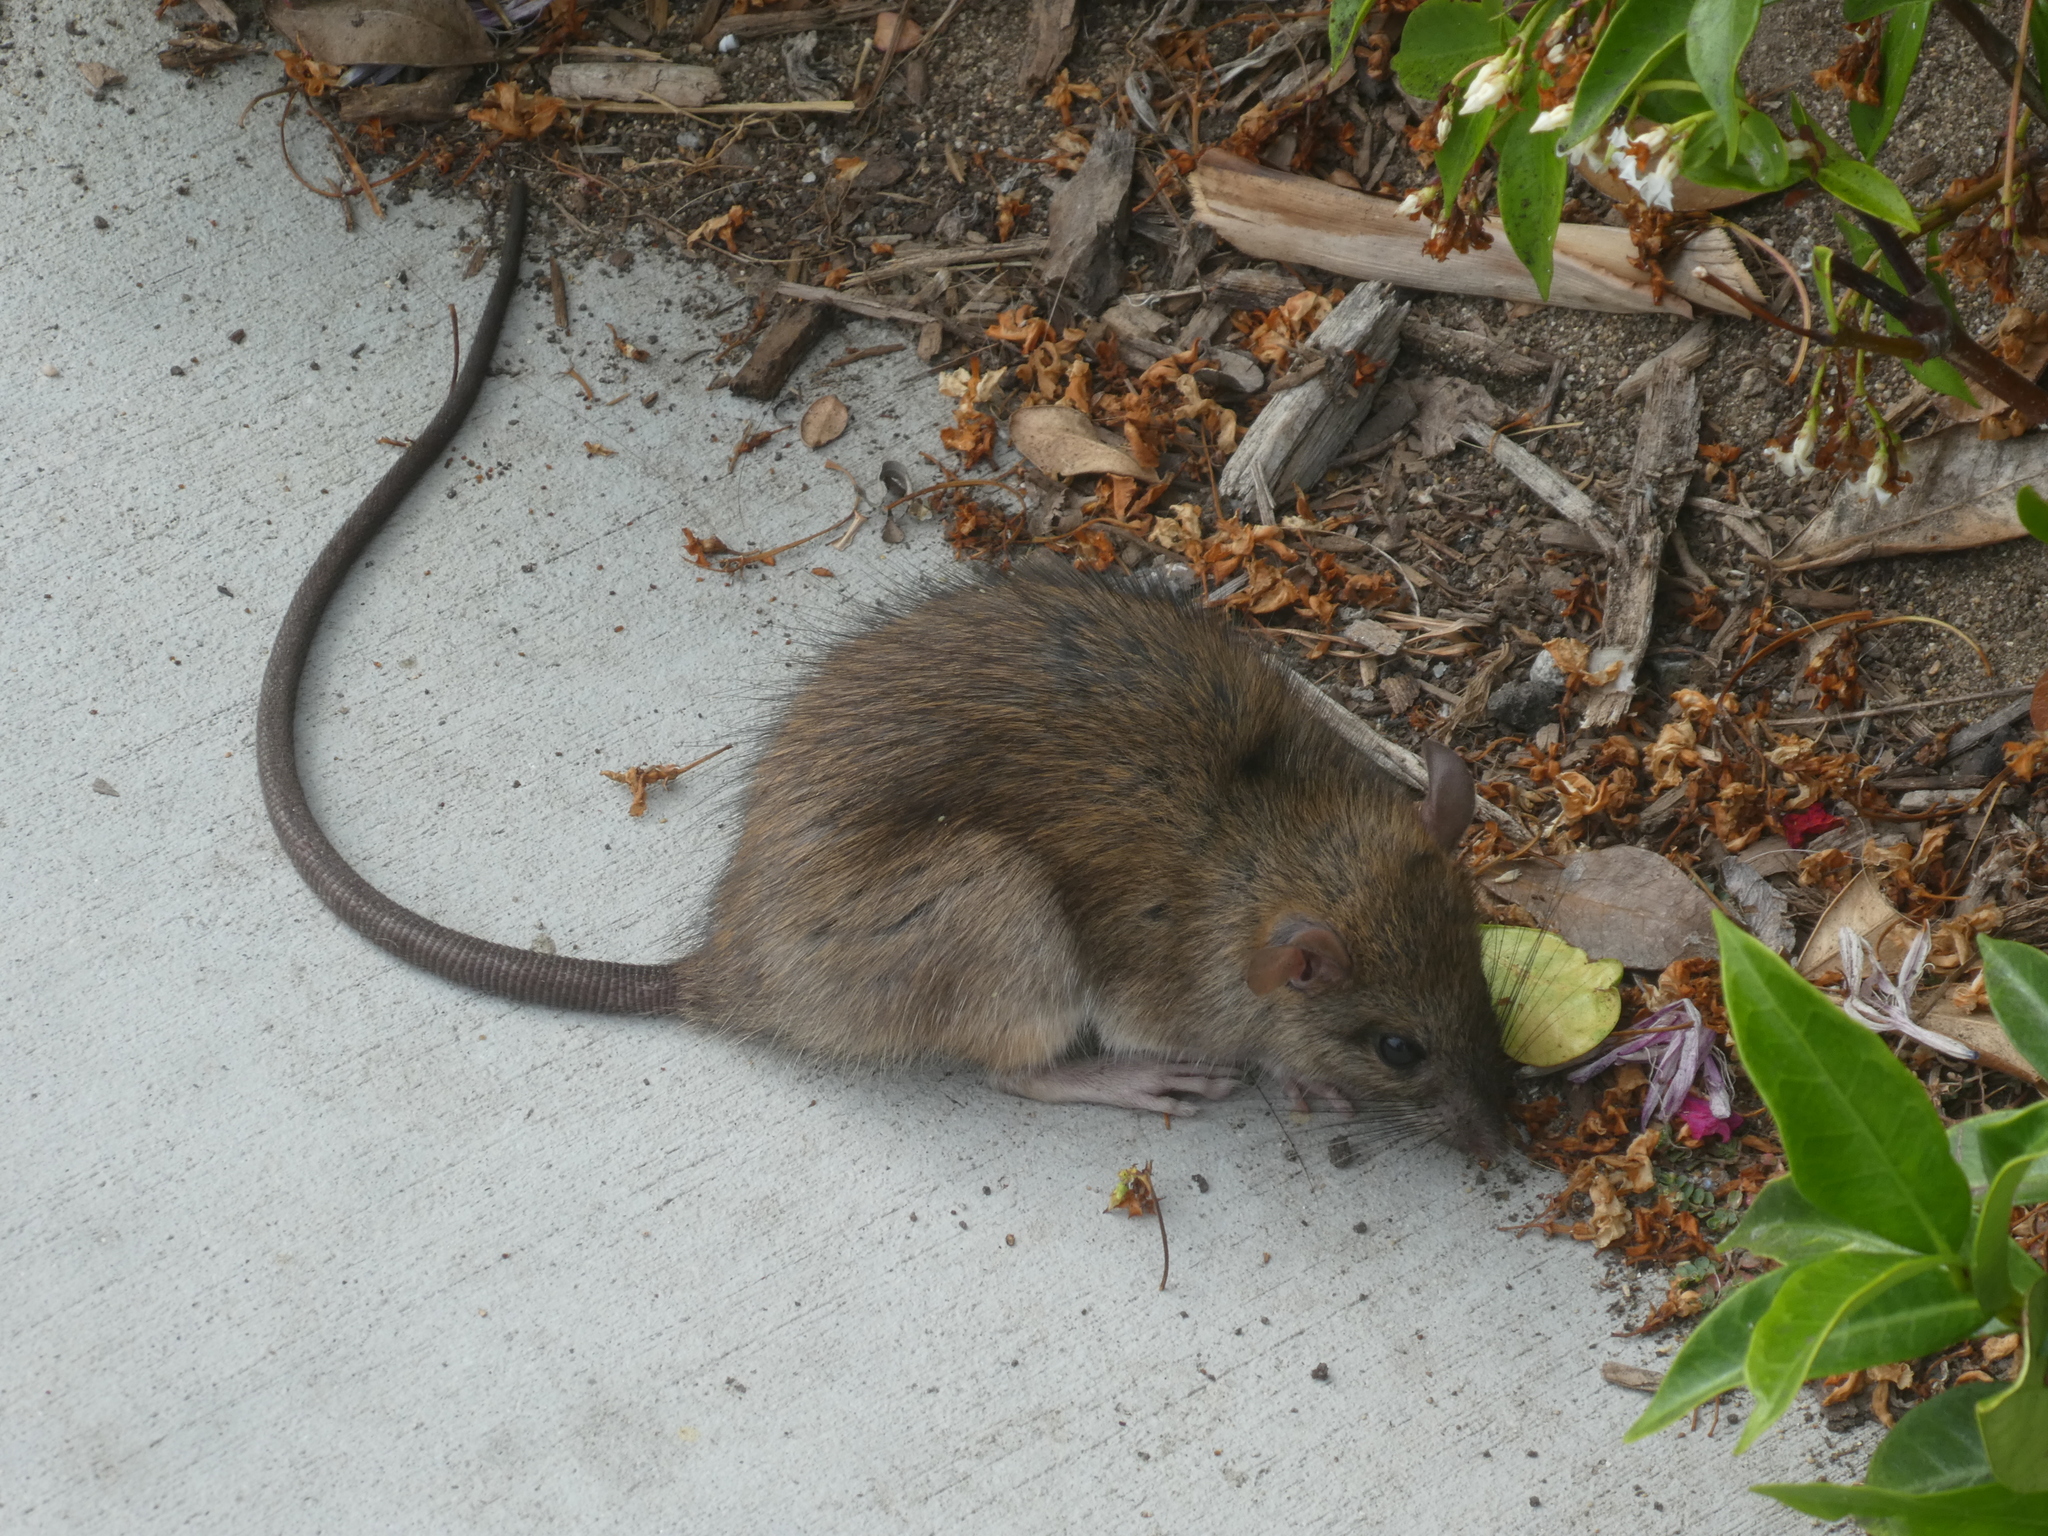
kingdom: Animalia
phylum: Chordata
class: Mammalia
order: Rodentia
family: Muridae
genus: Rattus
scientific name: Rattus rattus
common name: Black rat
